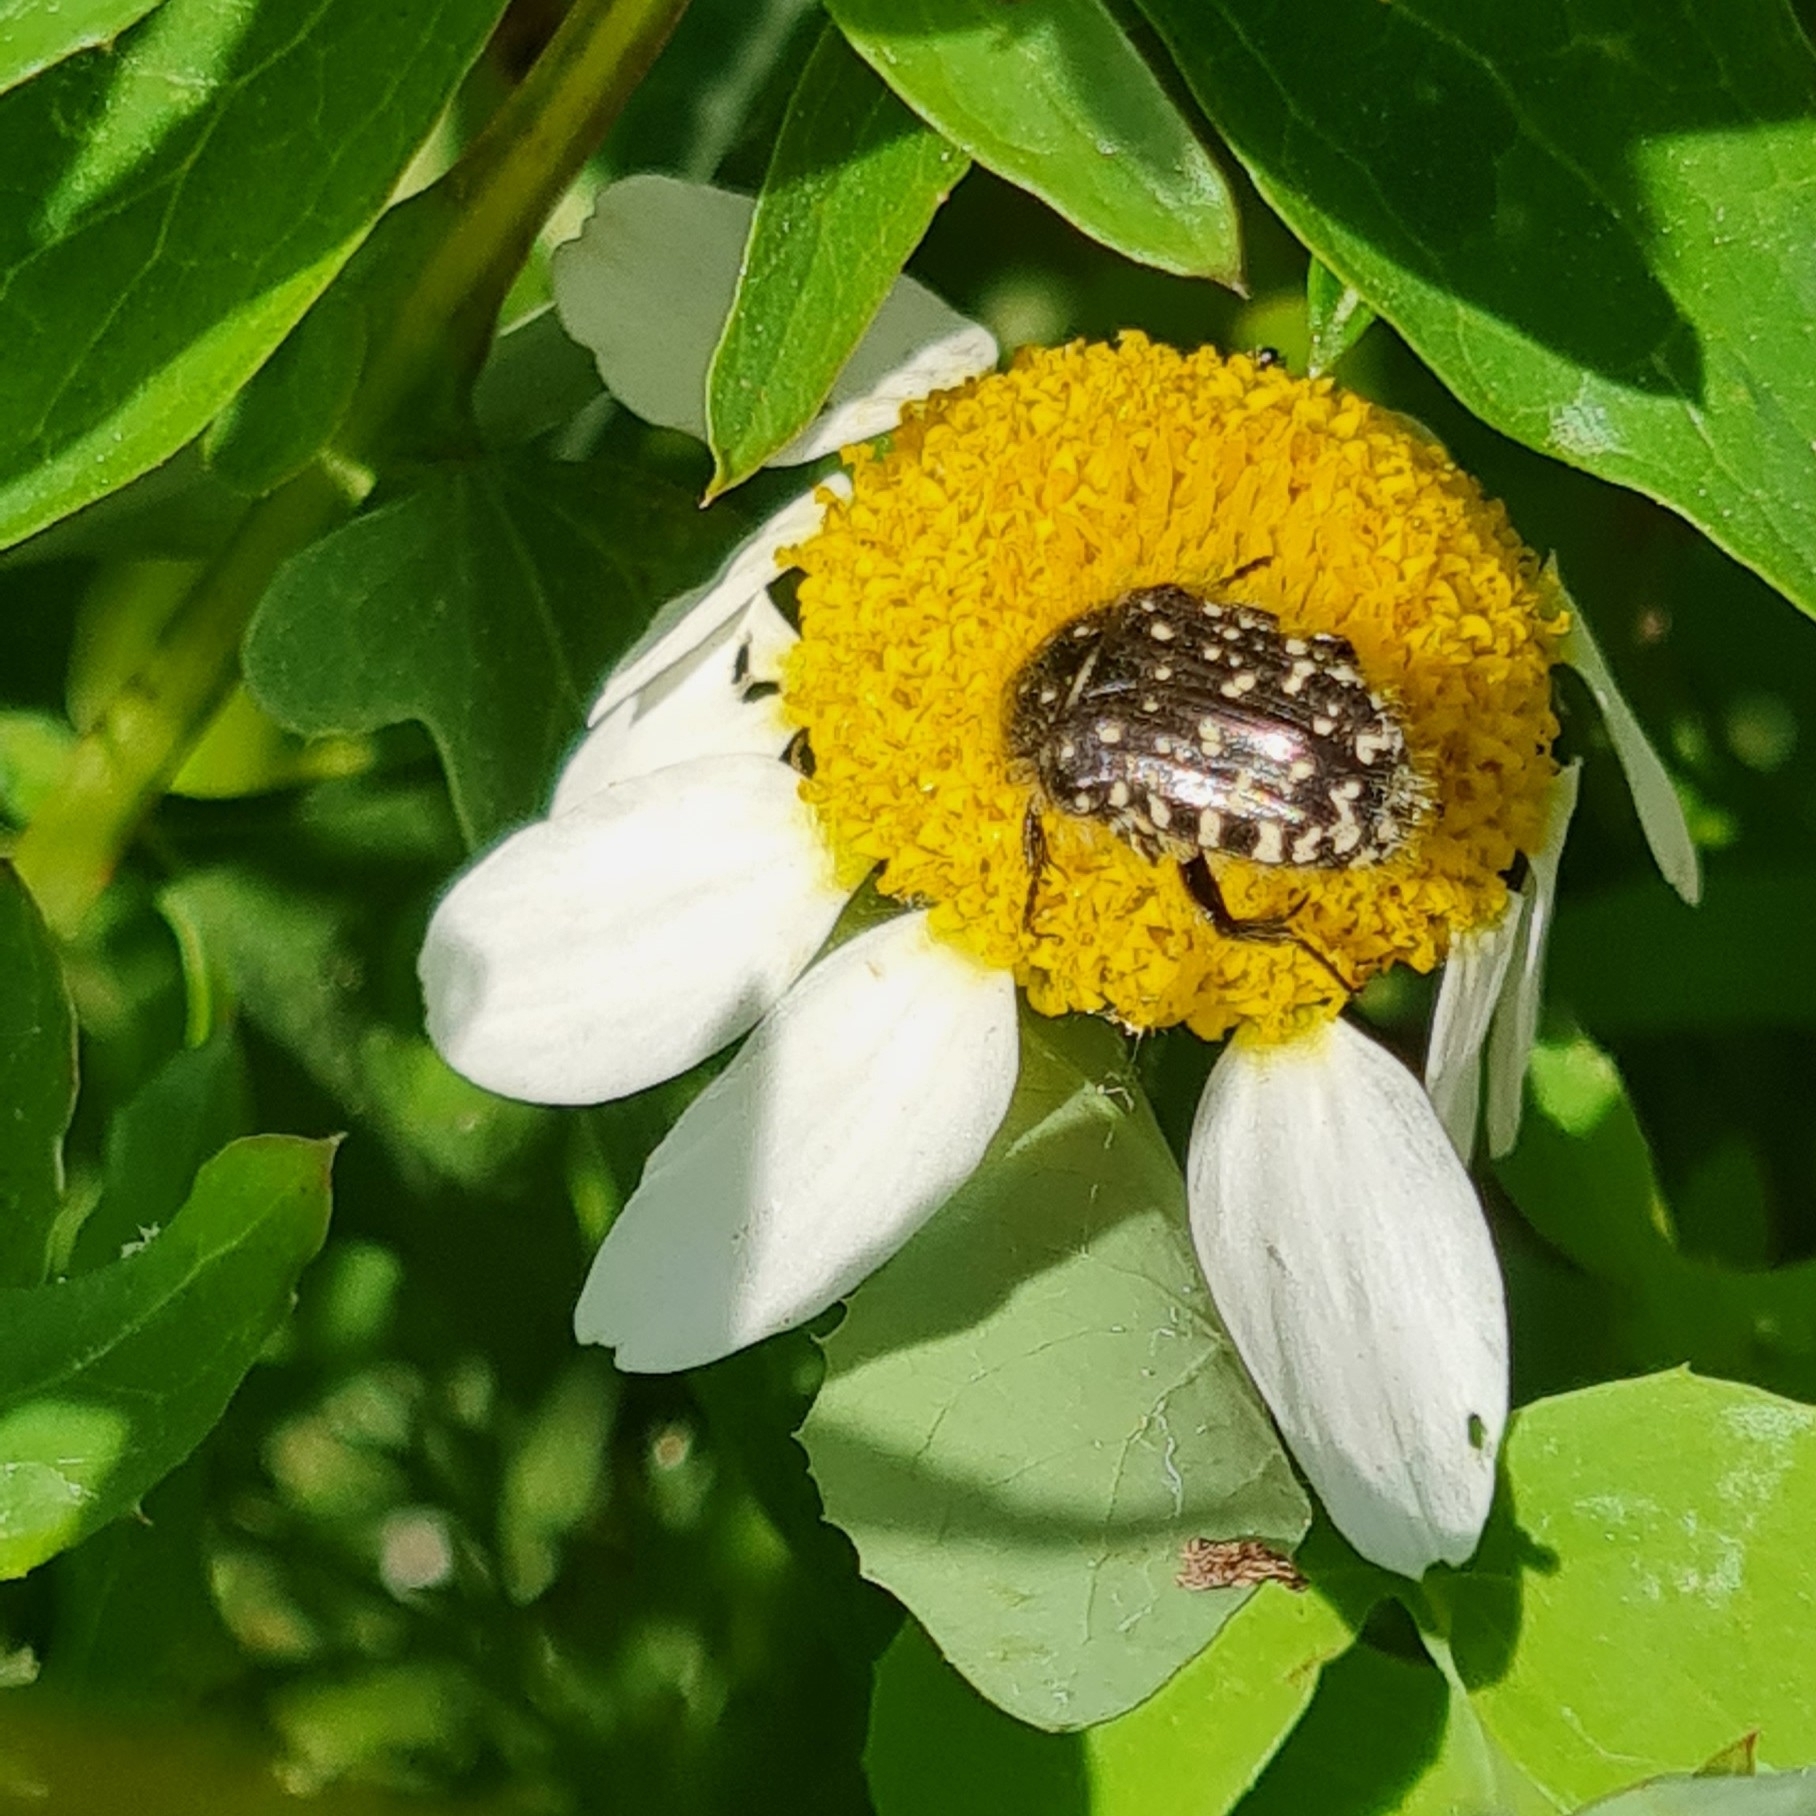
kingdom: Animalia
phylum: Arthropoda
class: Insecta
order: Coleoptera
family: Scarabaeidae
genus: Oxythyrea
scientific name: Oxythyrea funesta
